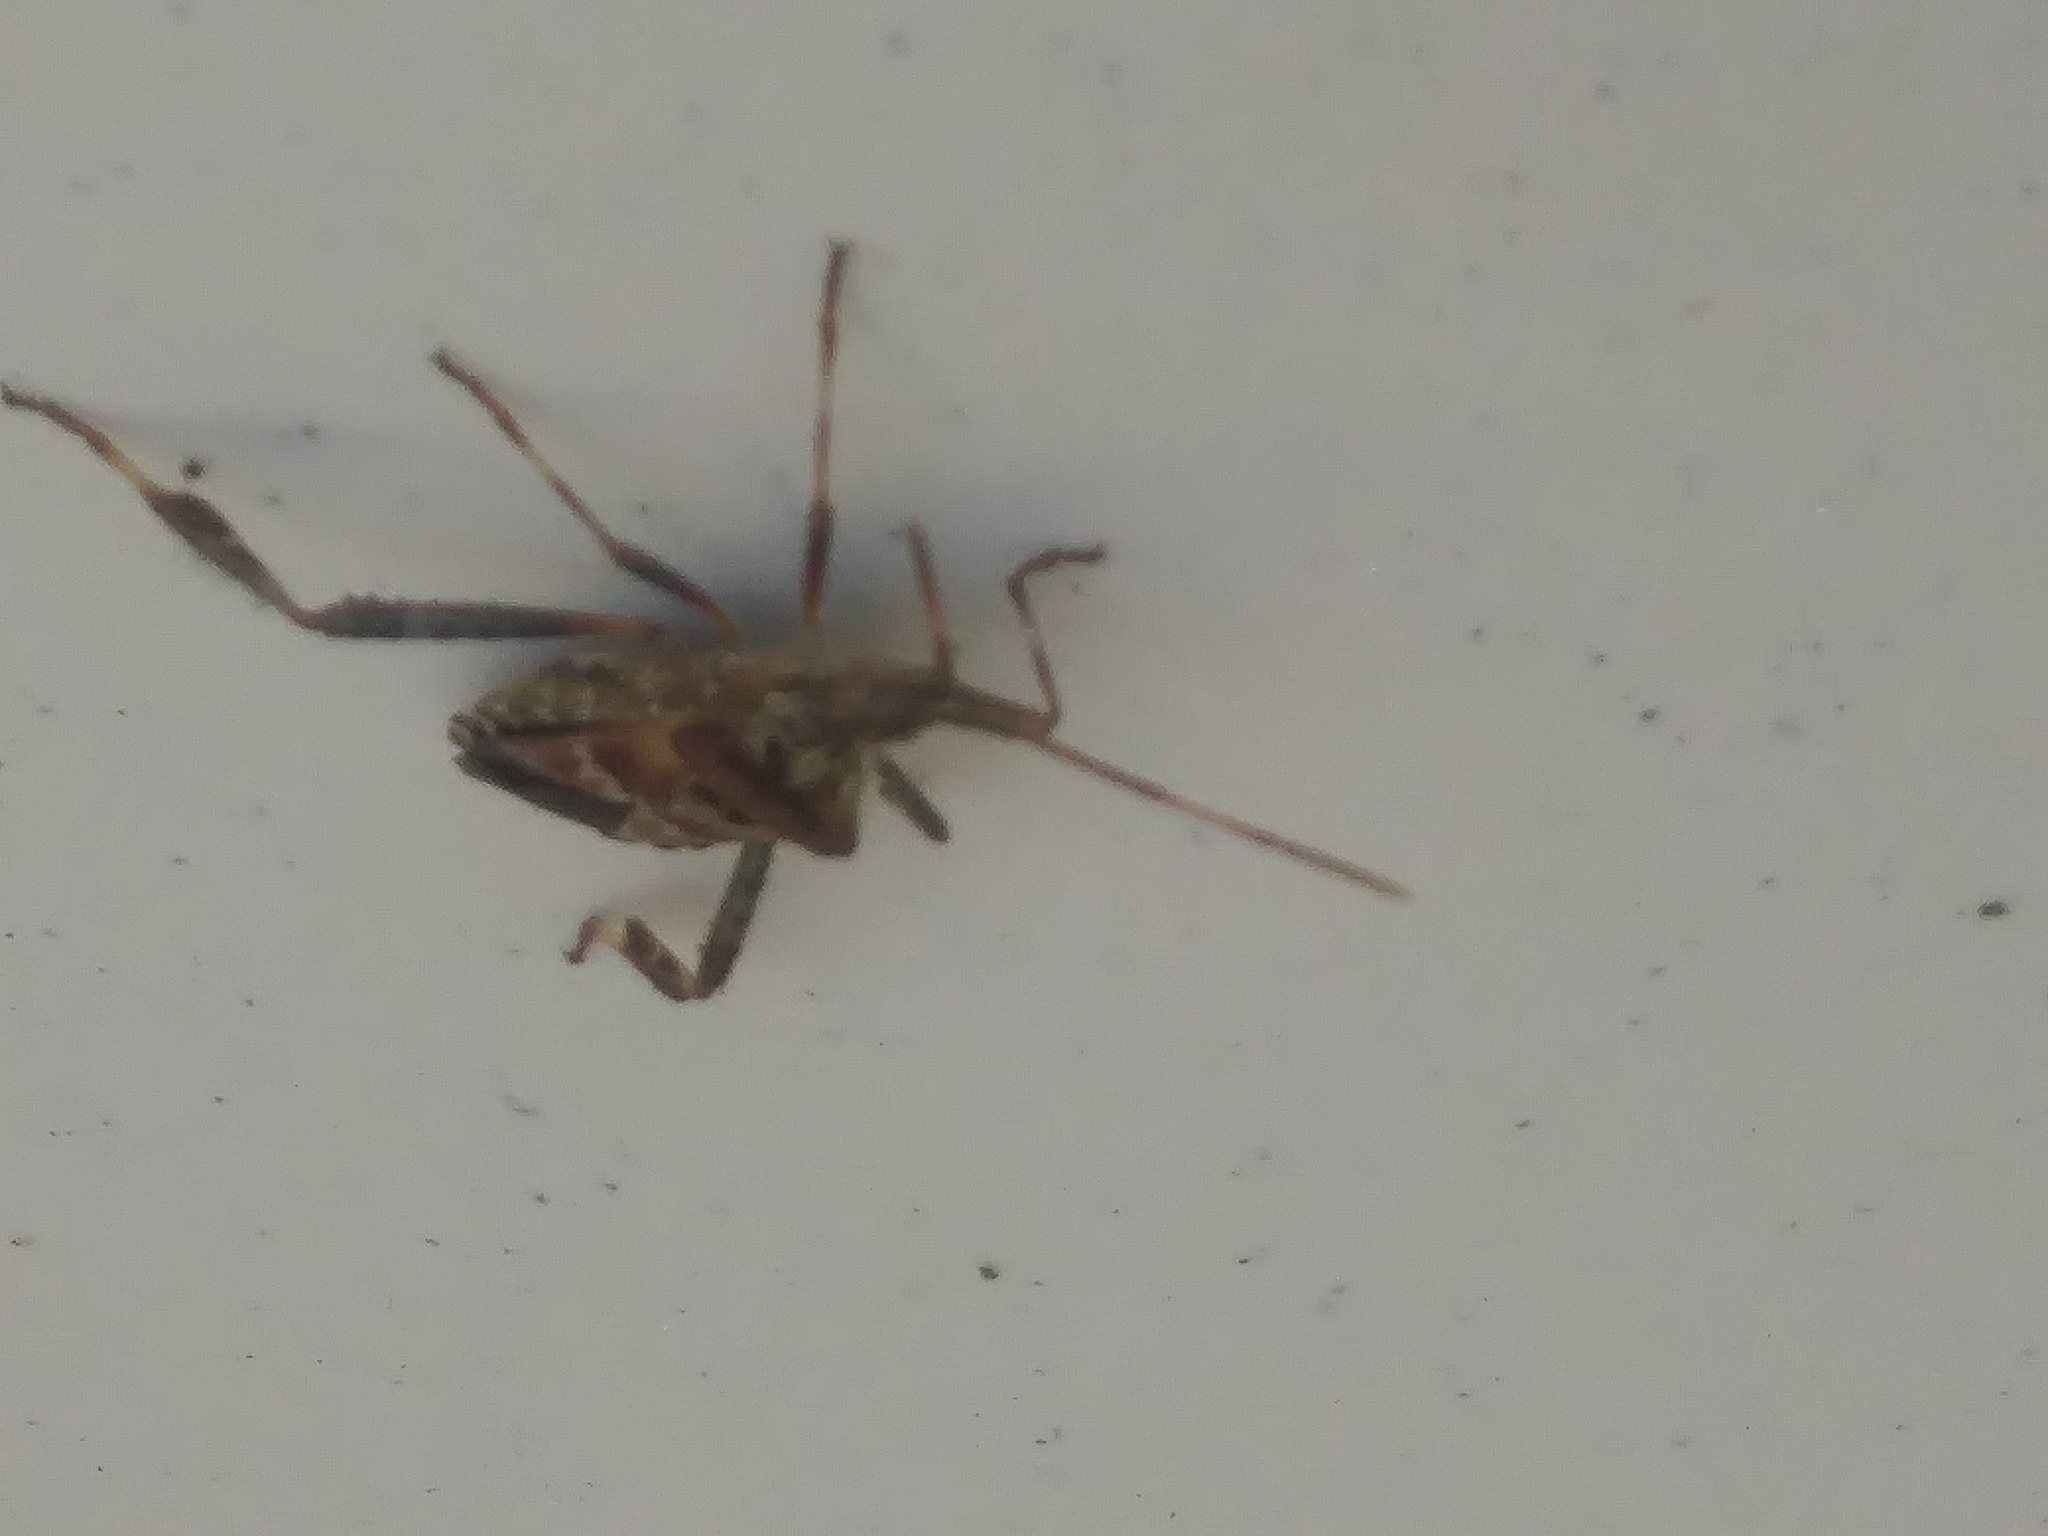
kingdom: Animalia
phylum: Arthropoda
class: Insecta
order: Hemiptera
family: Coreidae
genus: Leptoglossus
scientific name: Leptoglossus occidentalis
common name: Western conifer-seed bug
